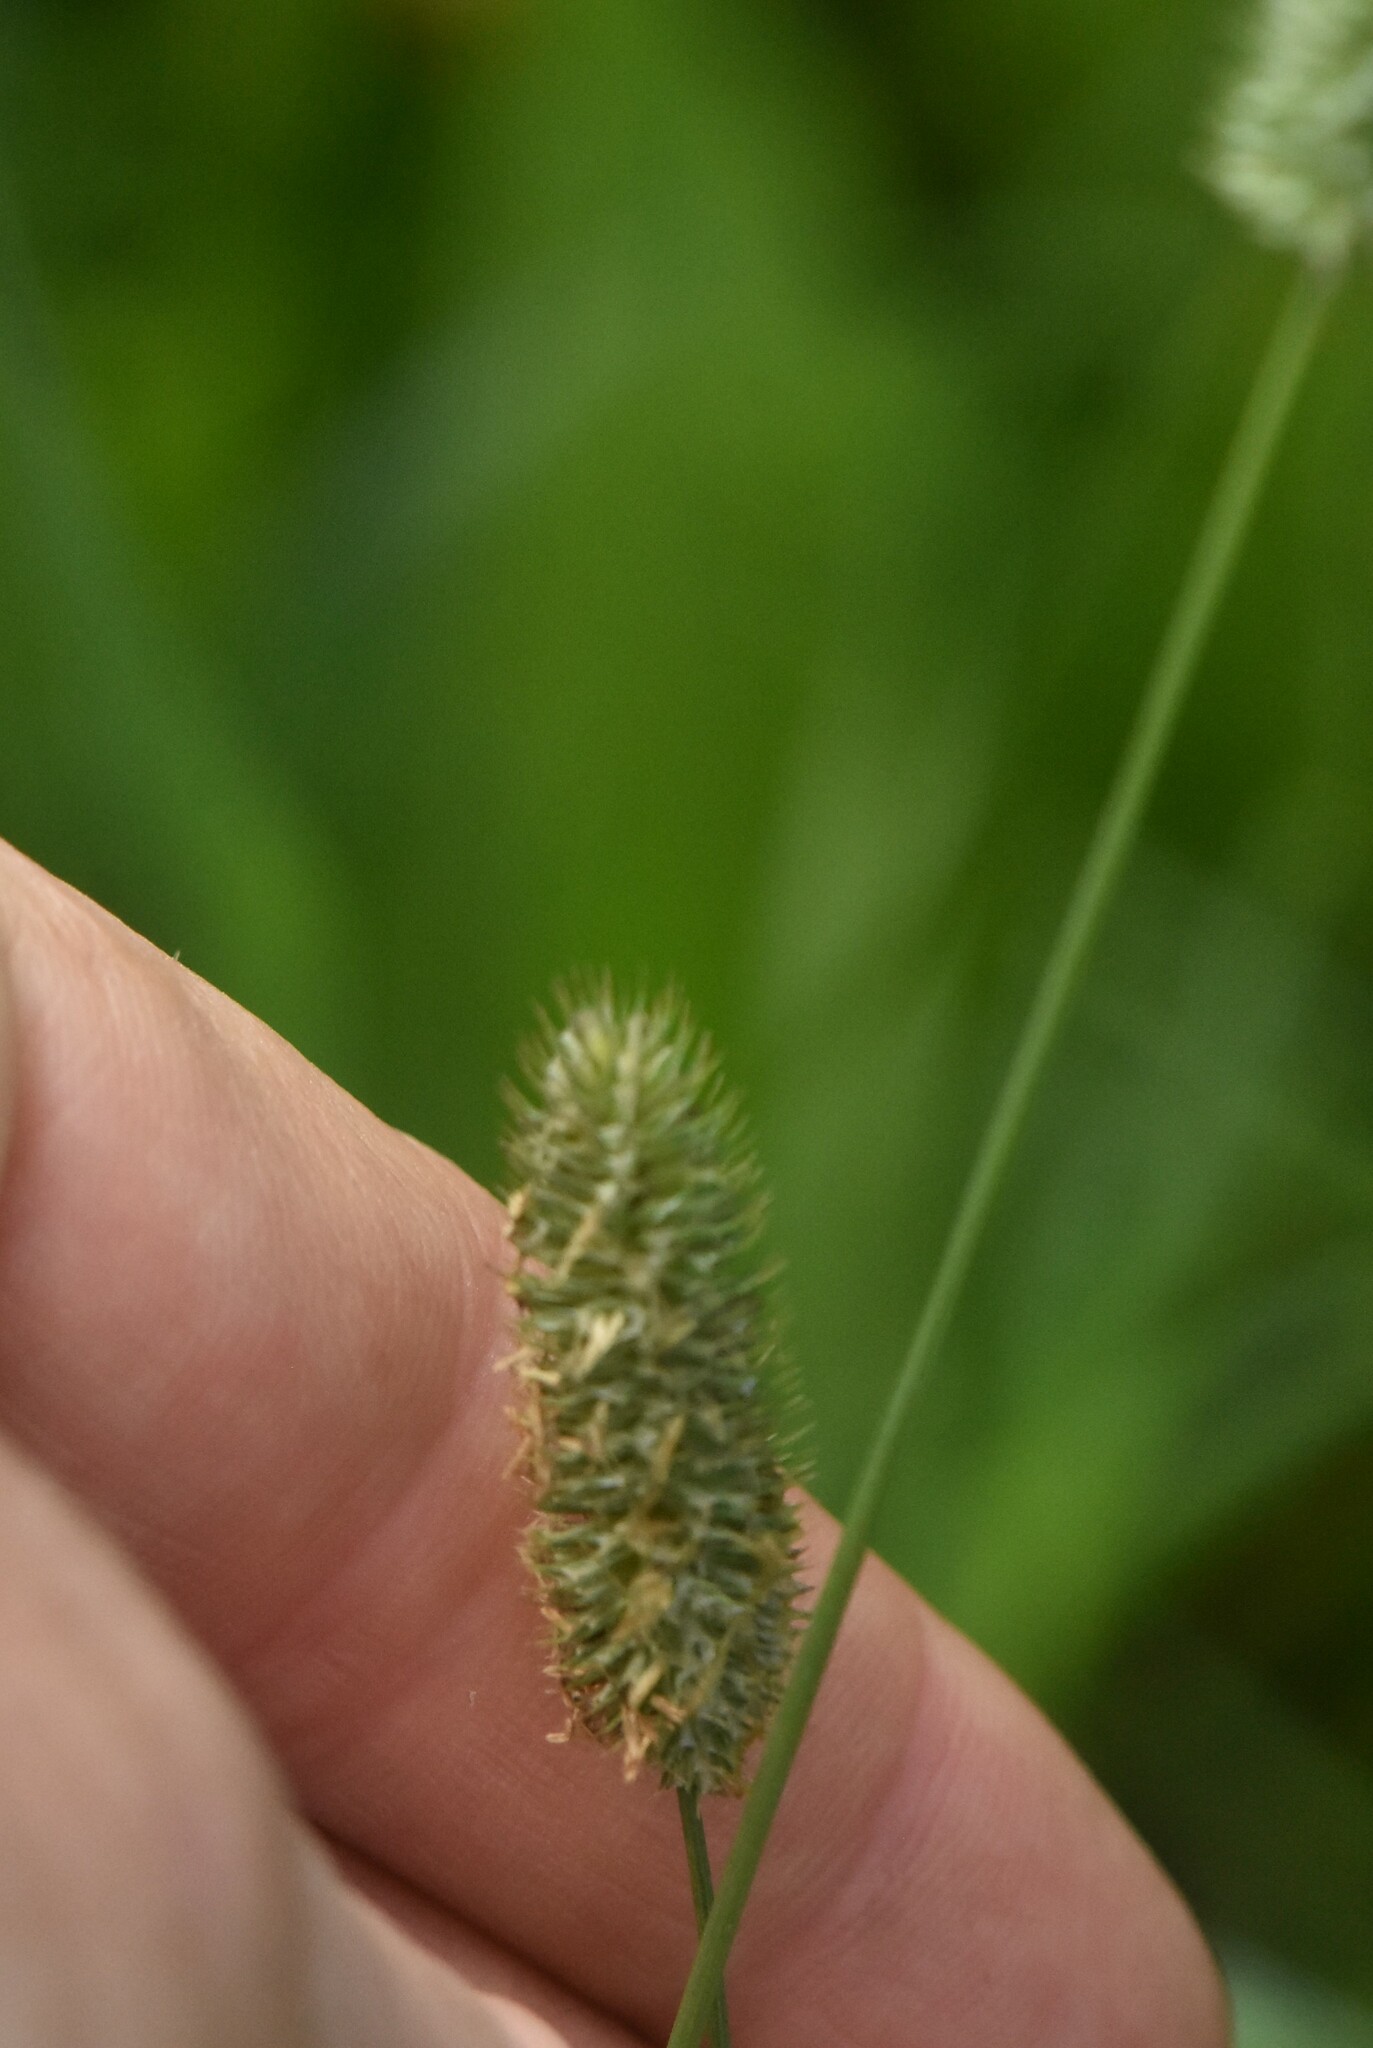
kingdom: Plantae
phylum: Tracheophyta
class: Liliopsida
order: Poales
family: Poaceae
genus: Phleum
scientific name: Phleum pratense
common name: Timothy grass
